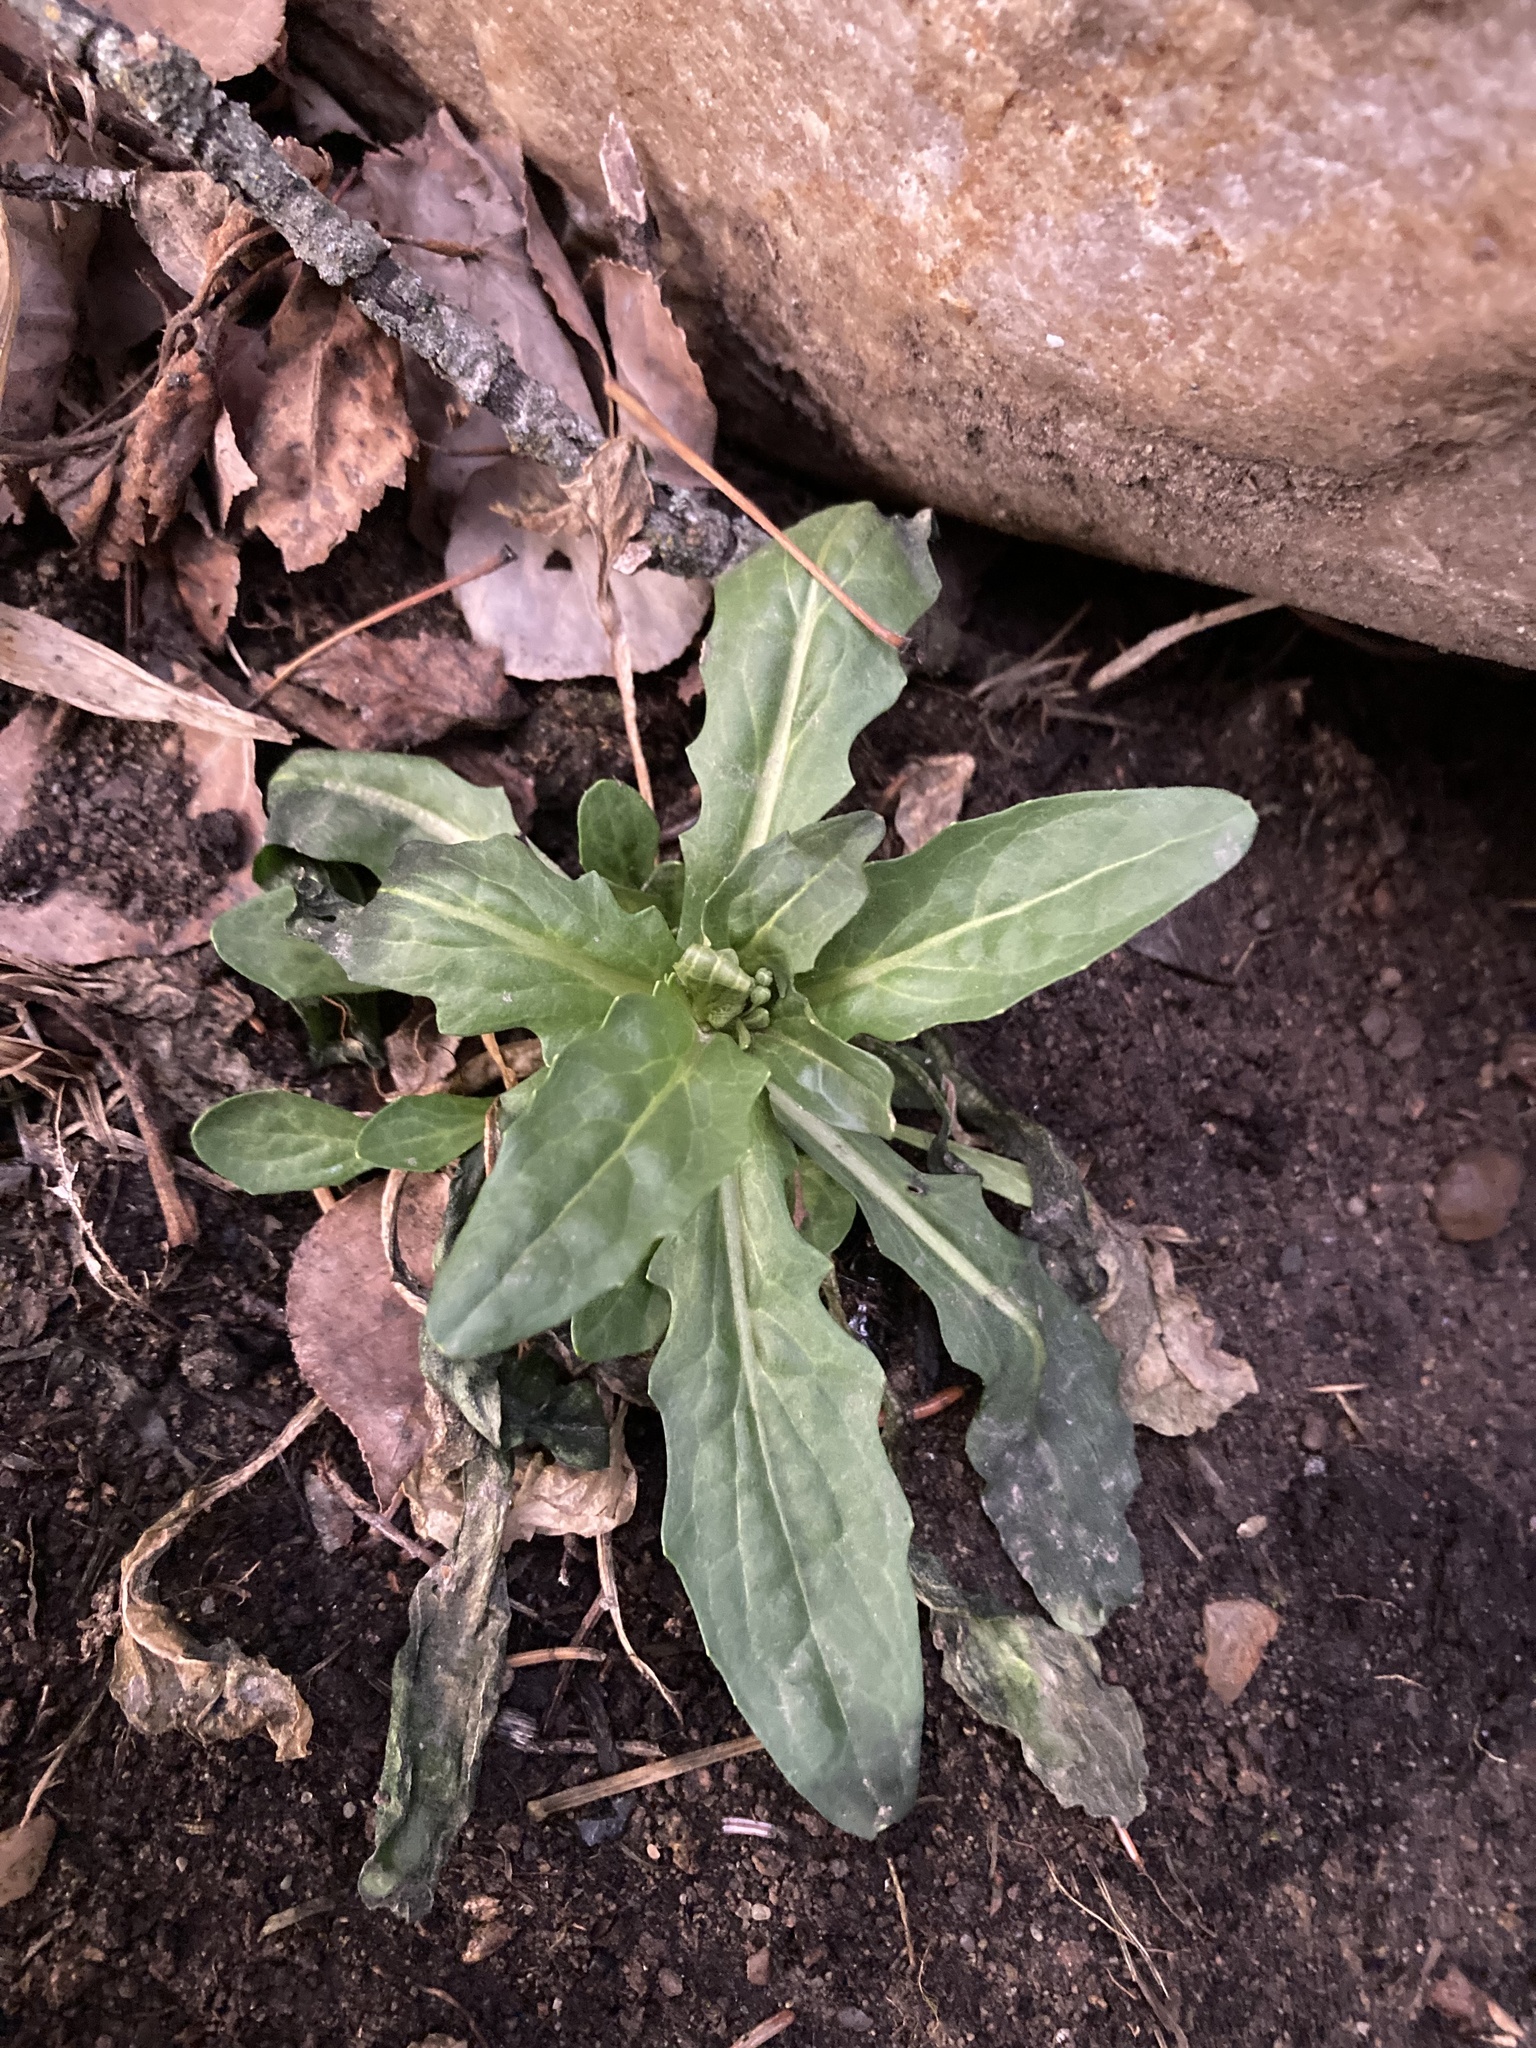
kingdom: Plantae
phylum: Tracheophyta
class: Magnoliopsida
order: Brassicales
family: Brassicaceae
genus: Thlaspi
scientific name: Thlaspi arvense
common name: Field pennycress
